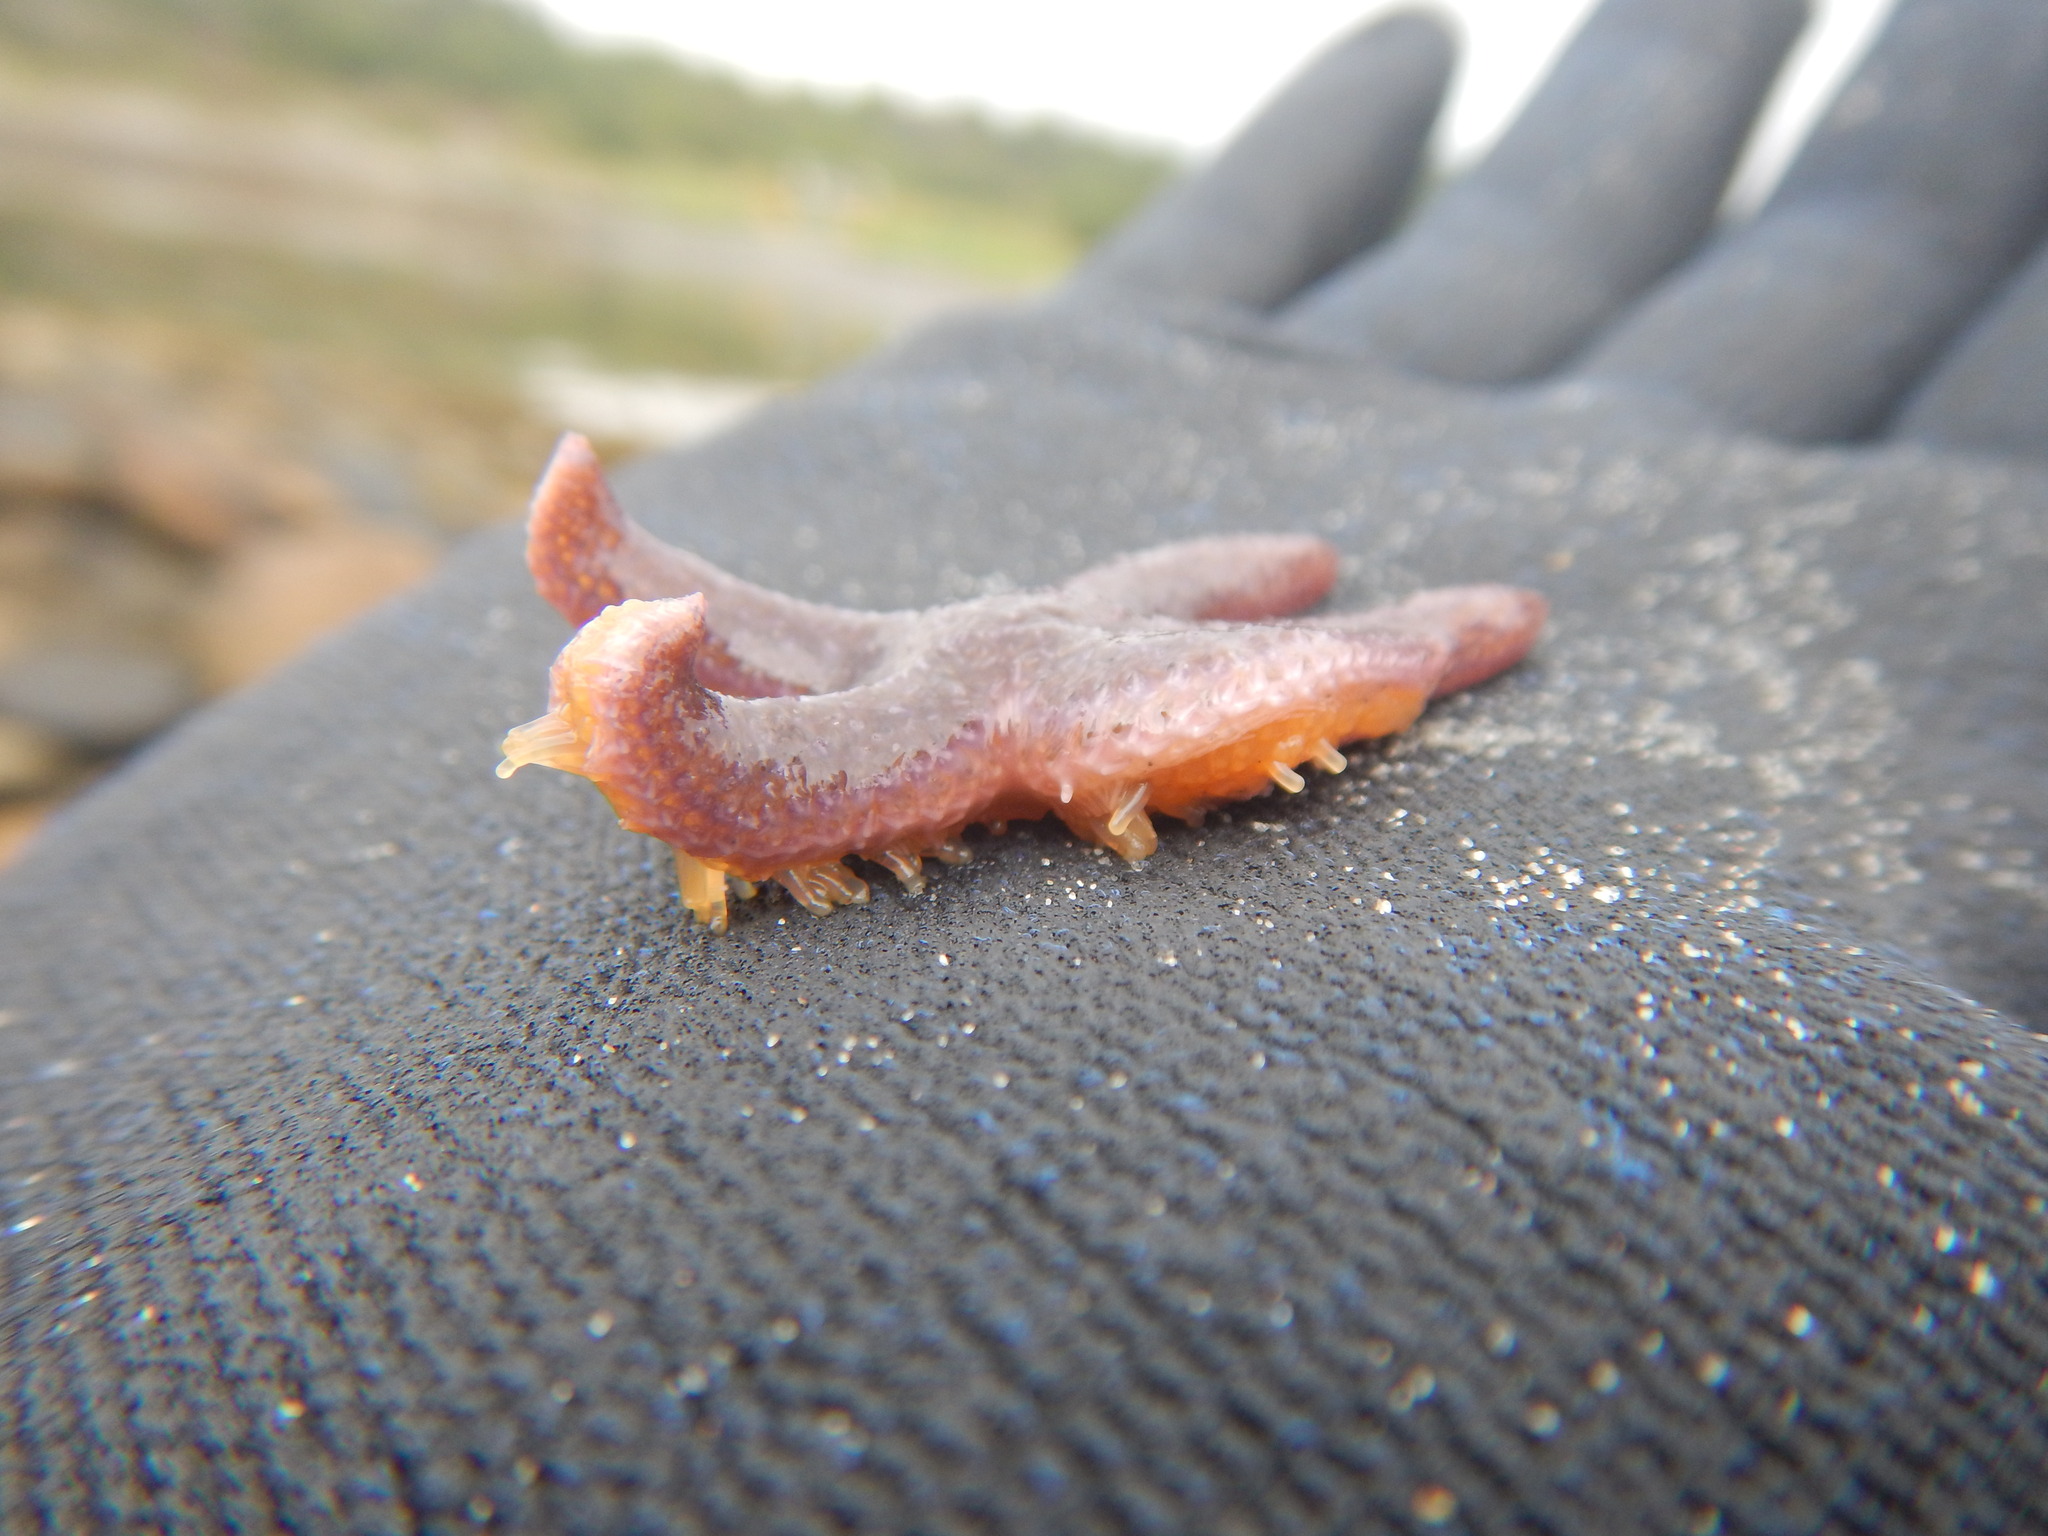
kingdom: Animalia
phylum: Echinodermata
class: Asteroidea
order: Forcipulatida
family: Asteriidae
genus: Asterias
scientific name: Asterias rubens
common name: Common starfish
